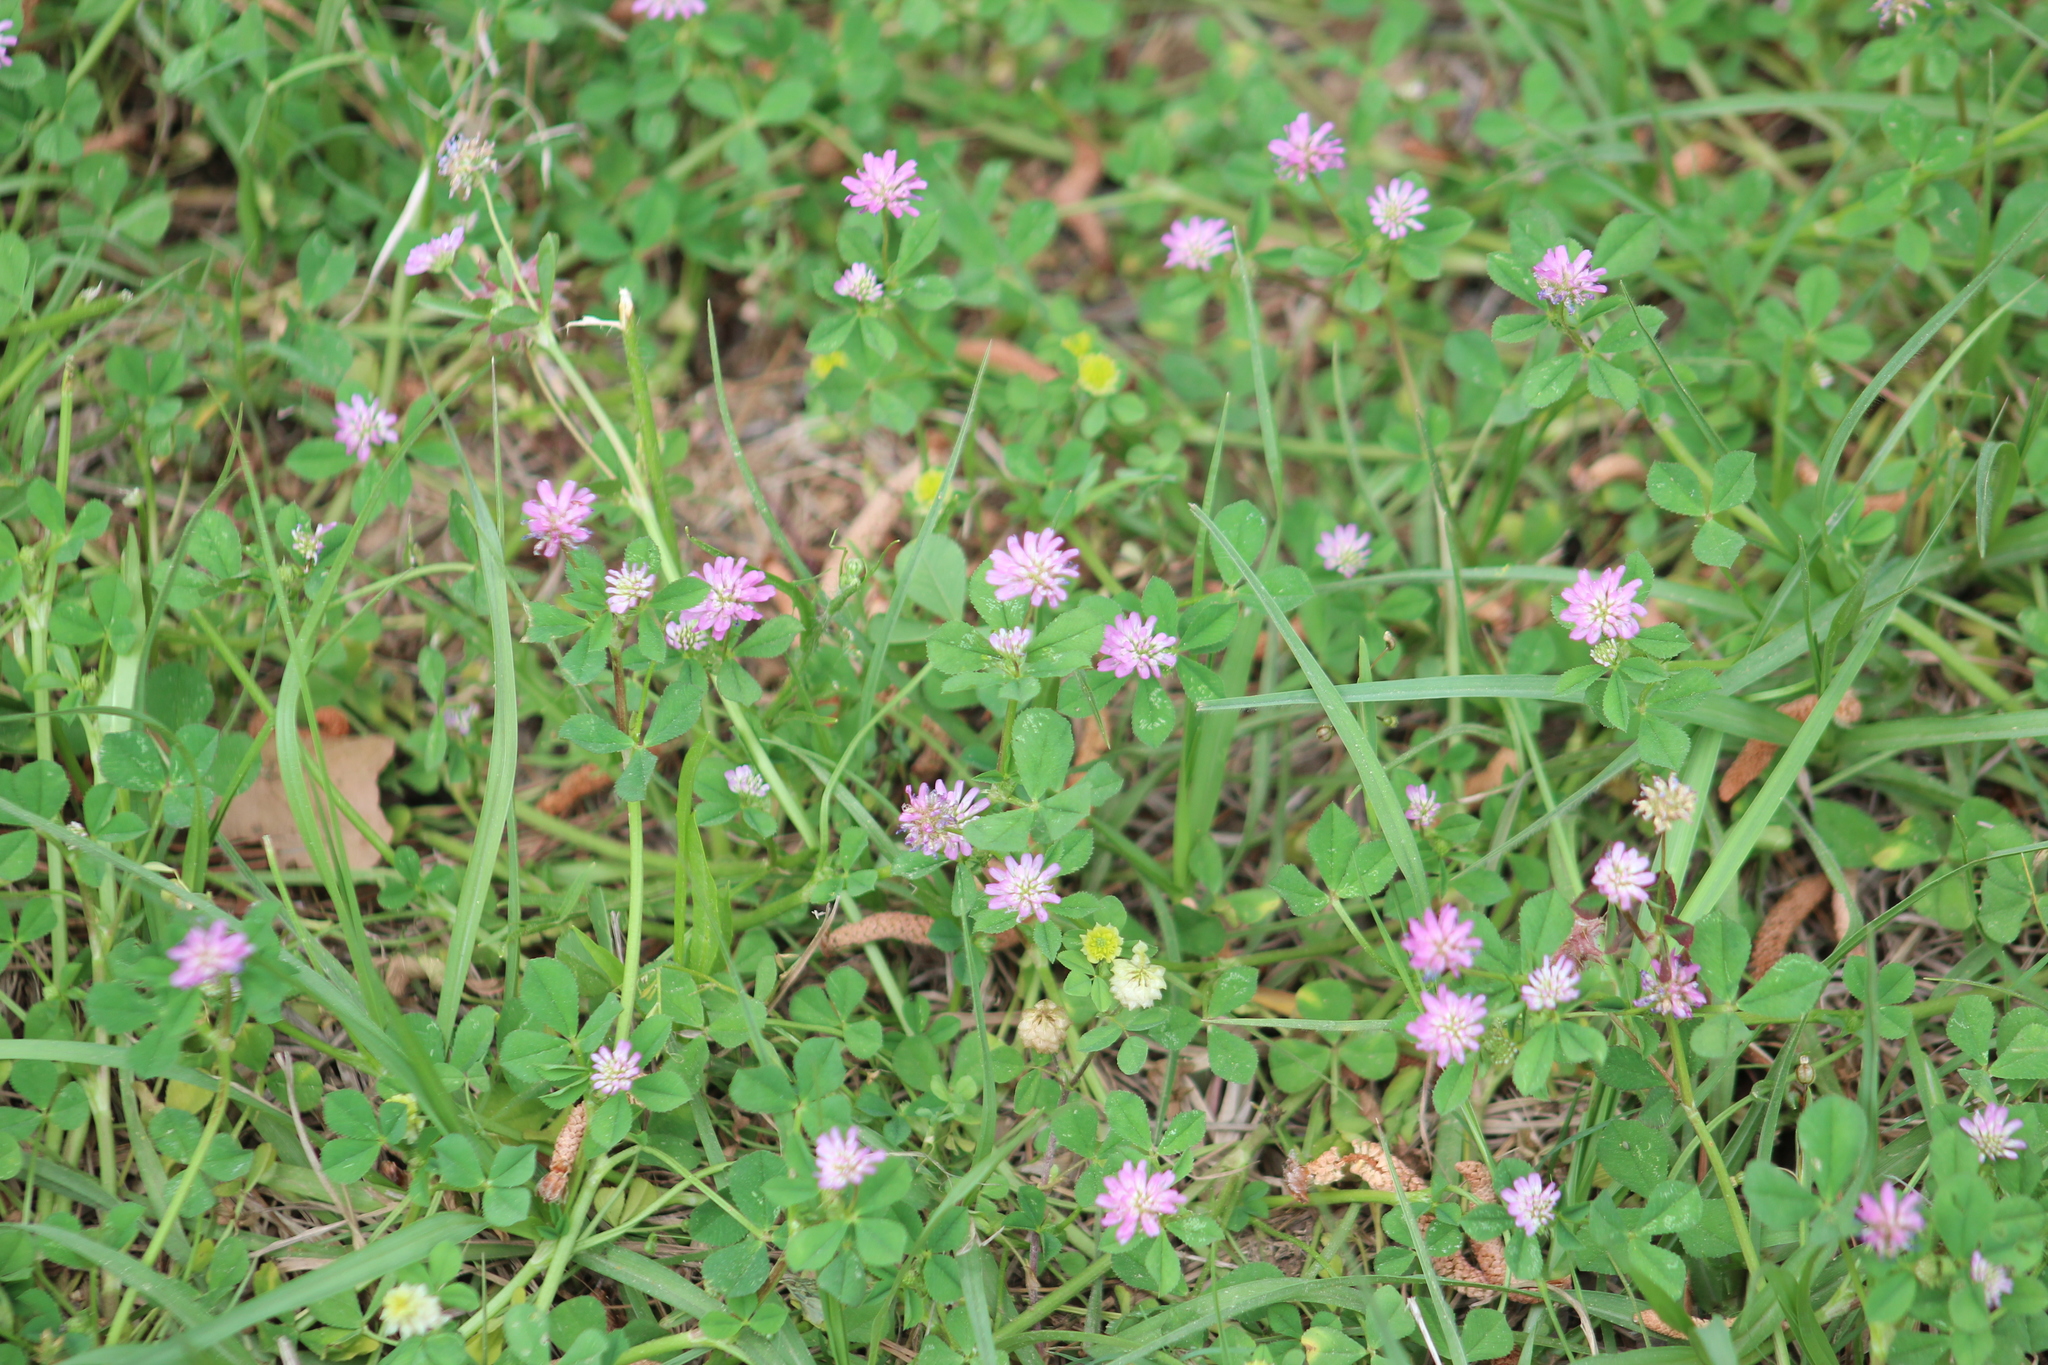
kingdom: Plantae
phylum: Tracheophyta
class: Magnoliopsida
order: Fabales
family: Fabaceae
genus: Trifolium
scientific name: Trifolium resupinatum
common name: Reversed clover
